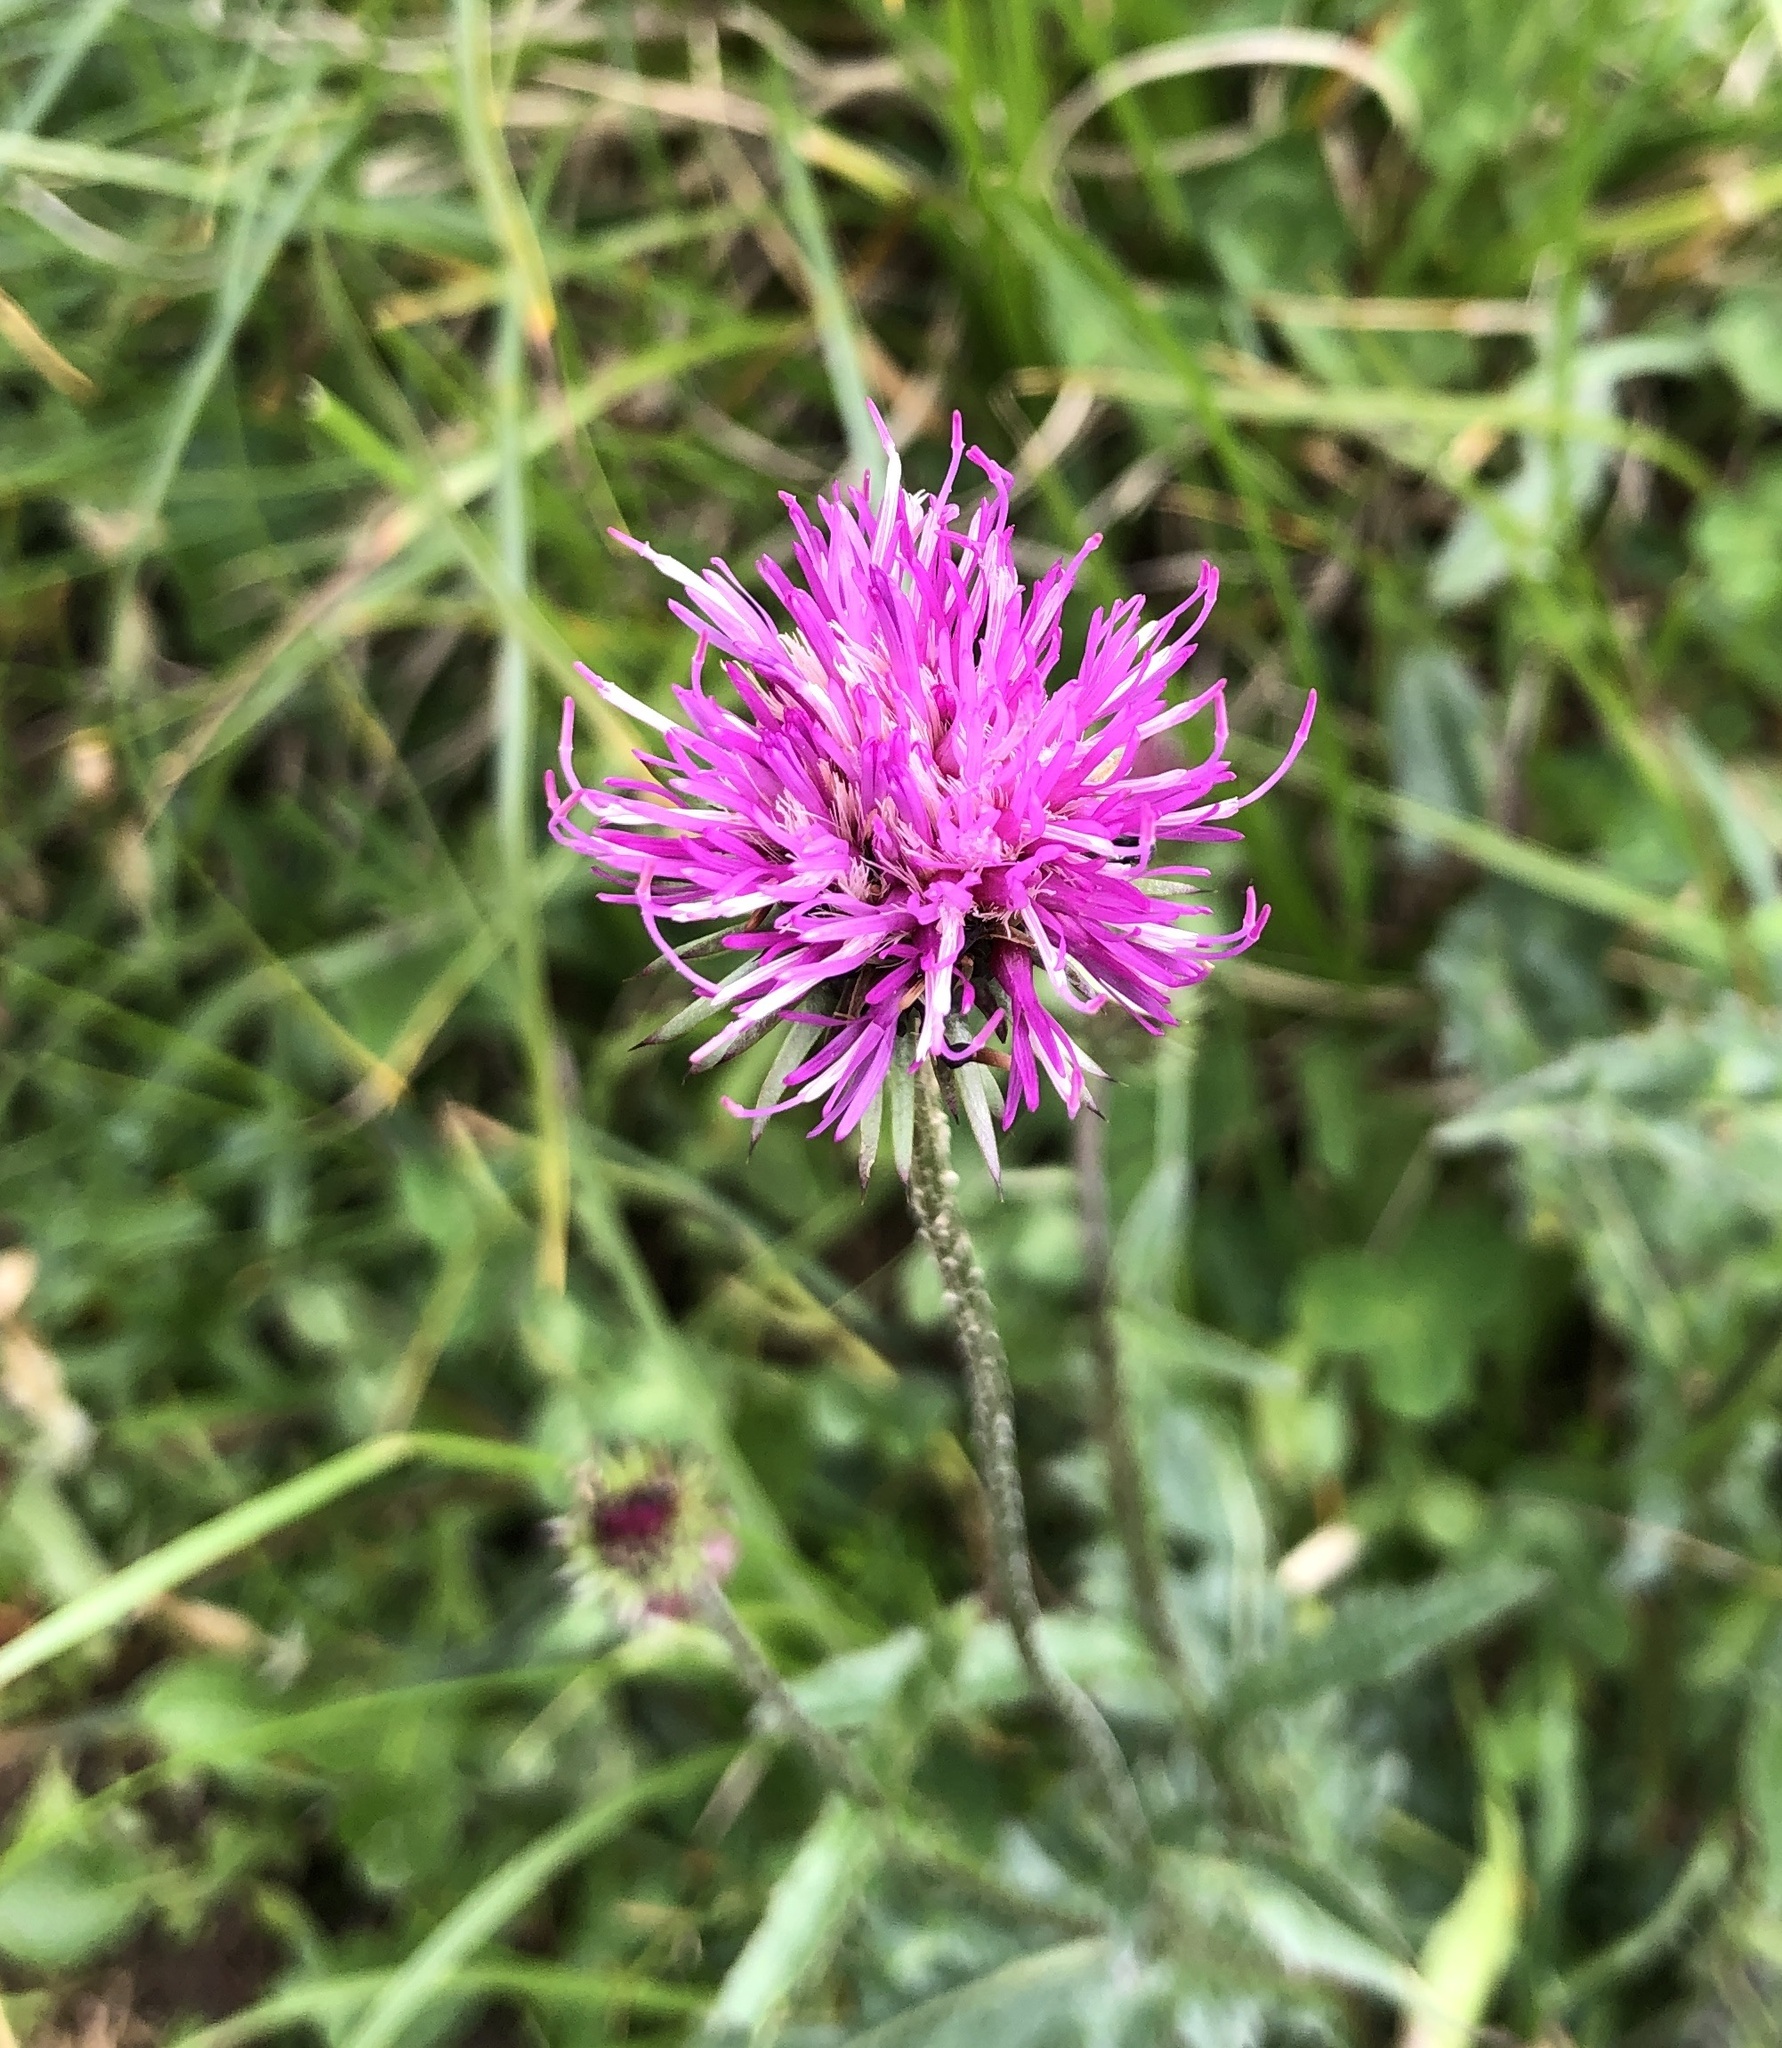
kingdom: Plantae
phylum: Tracheophyta
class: Magnoliopsida
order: Asterales
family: Asteraceae
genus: Carduus
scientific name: Carduus defloratus
